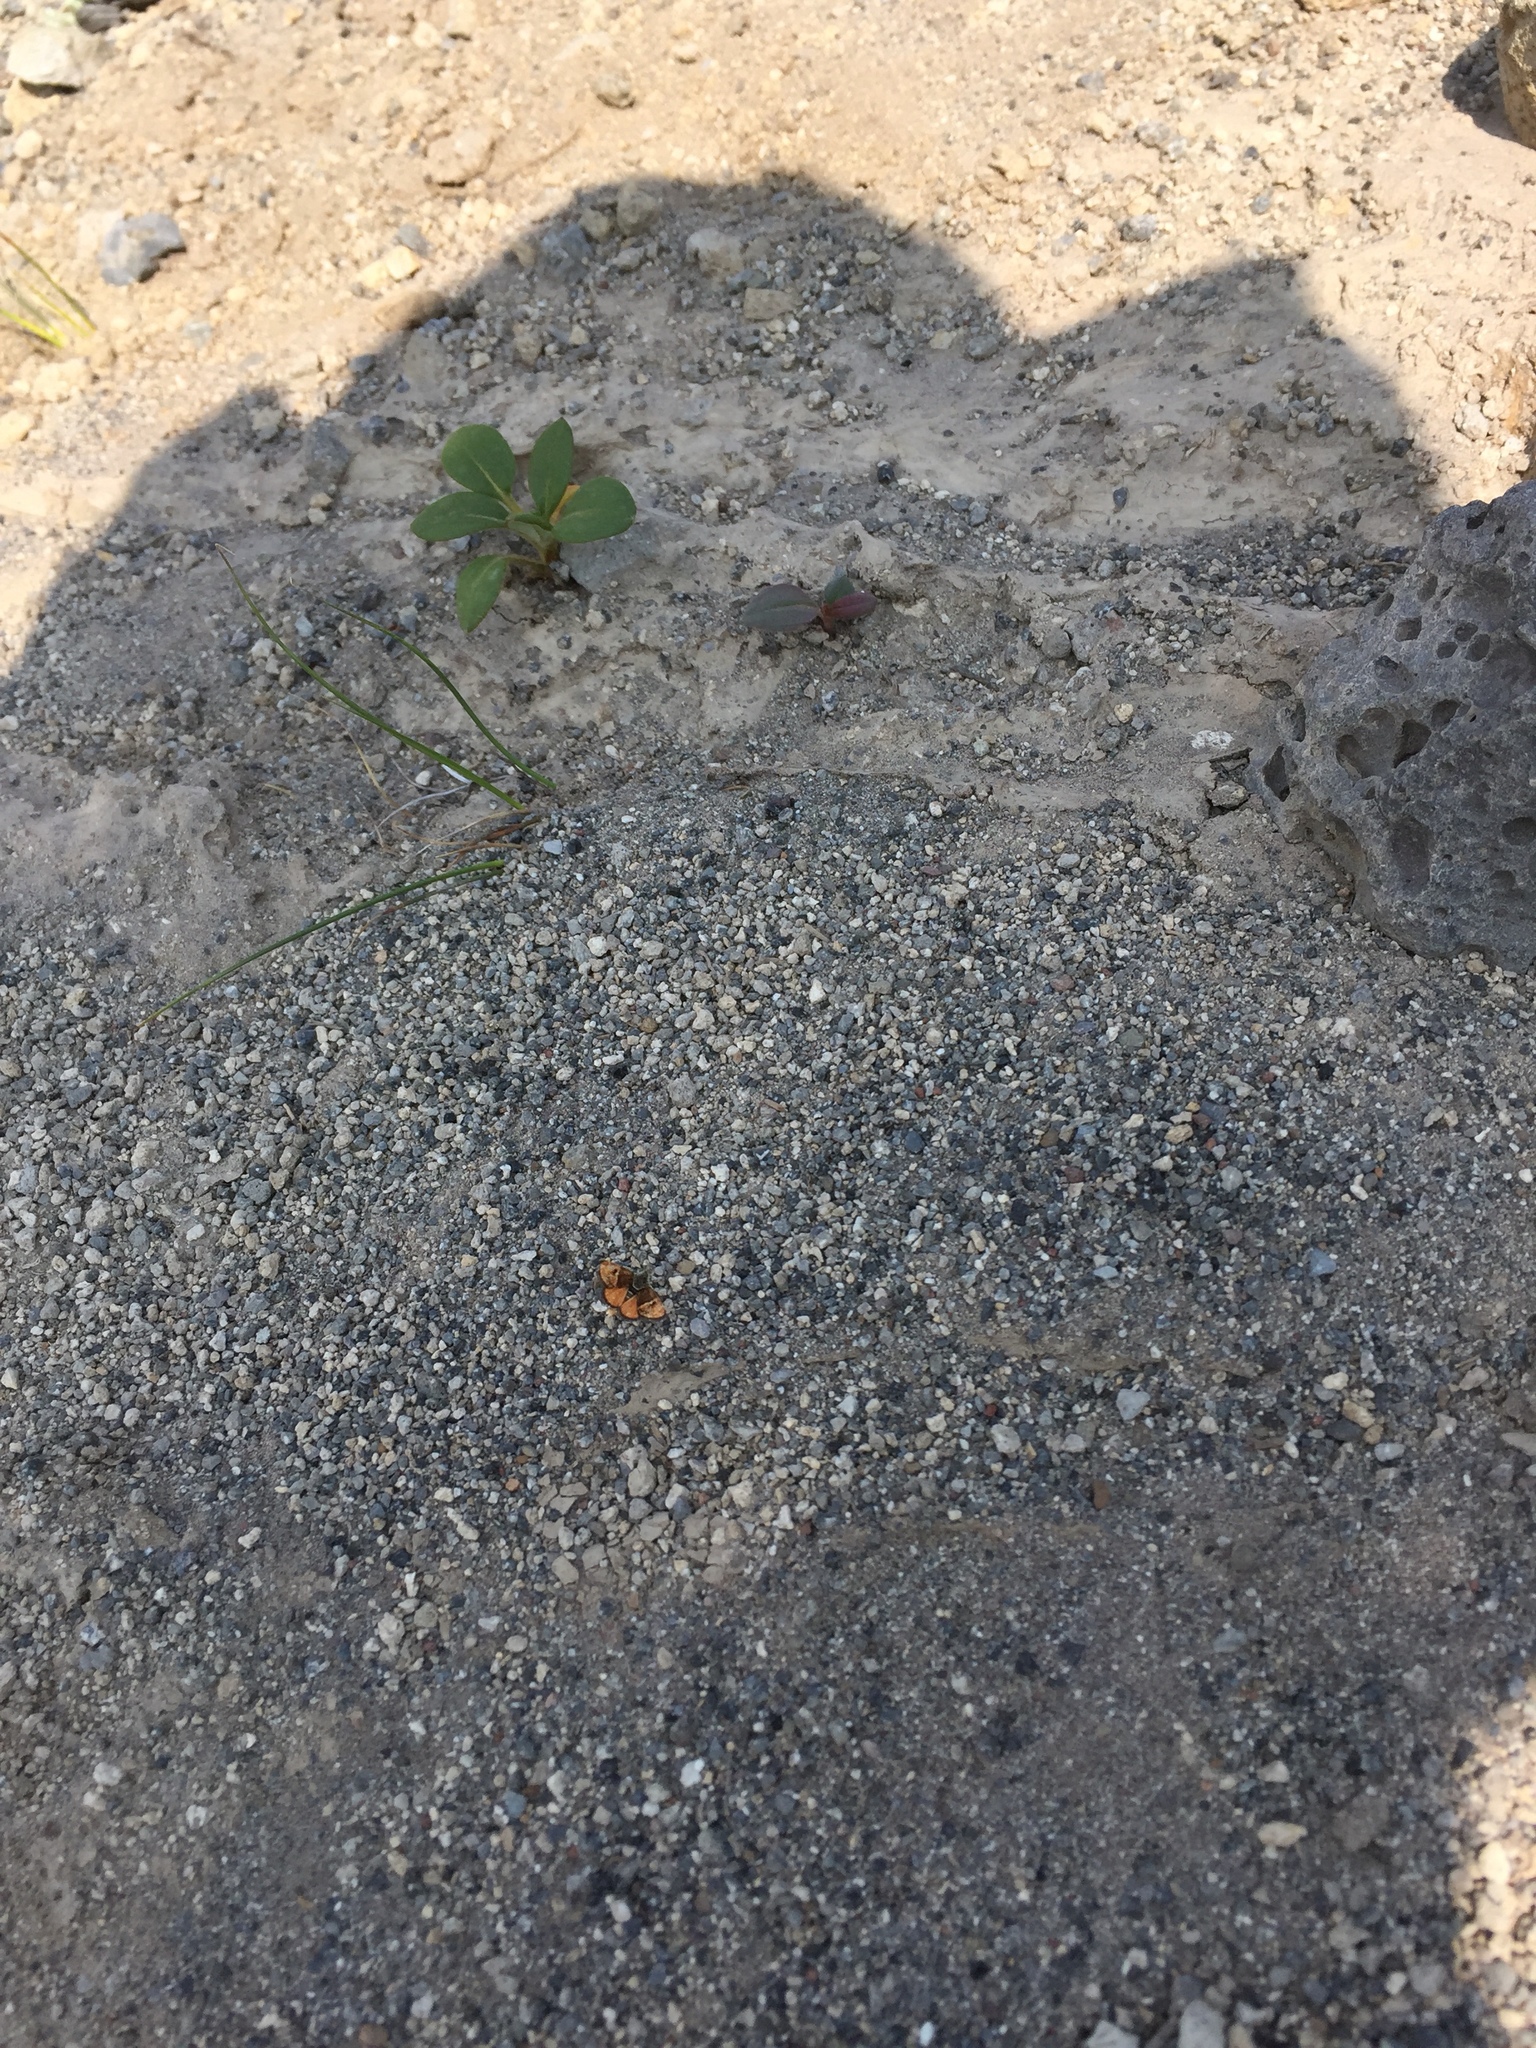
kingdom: Animalia
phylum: Arthropoda
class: Insecta
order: Lepidoptera
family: Crambidae
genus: Gyros
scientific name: Gyros muiri
